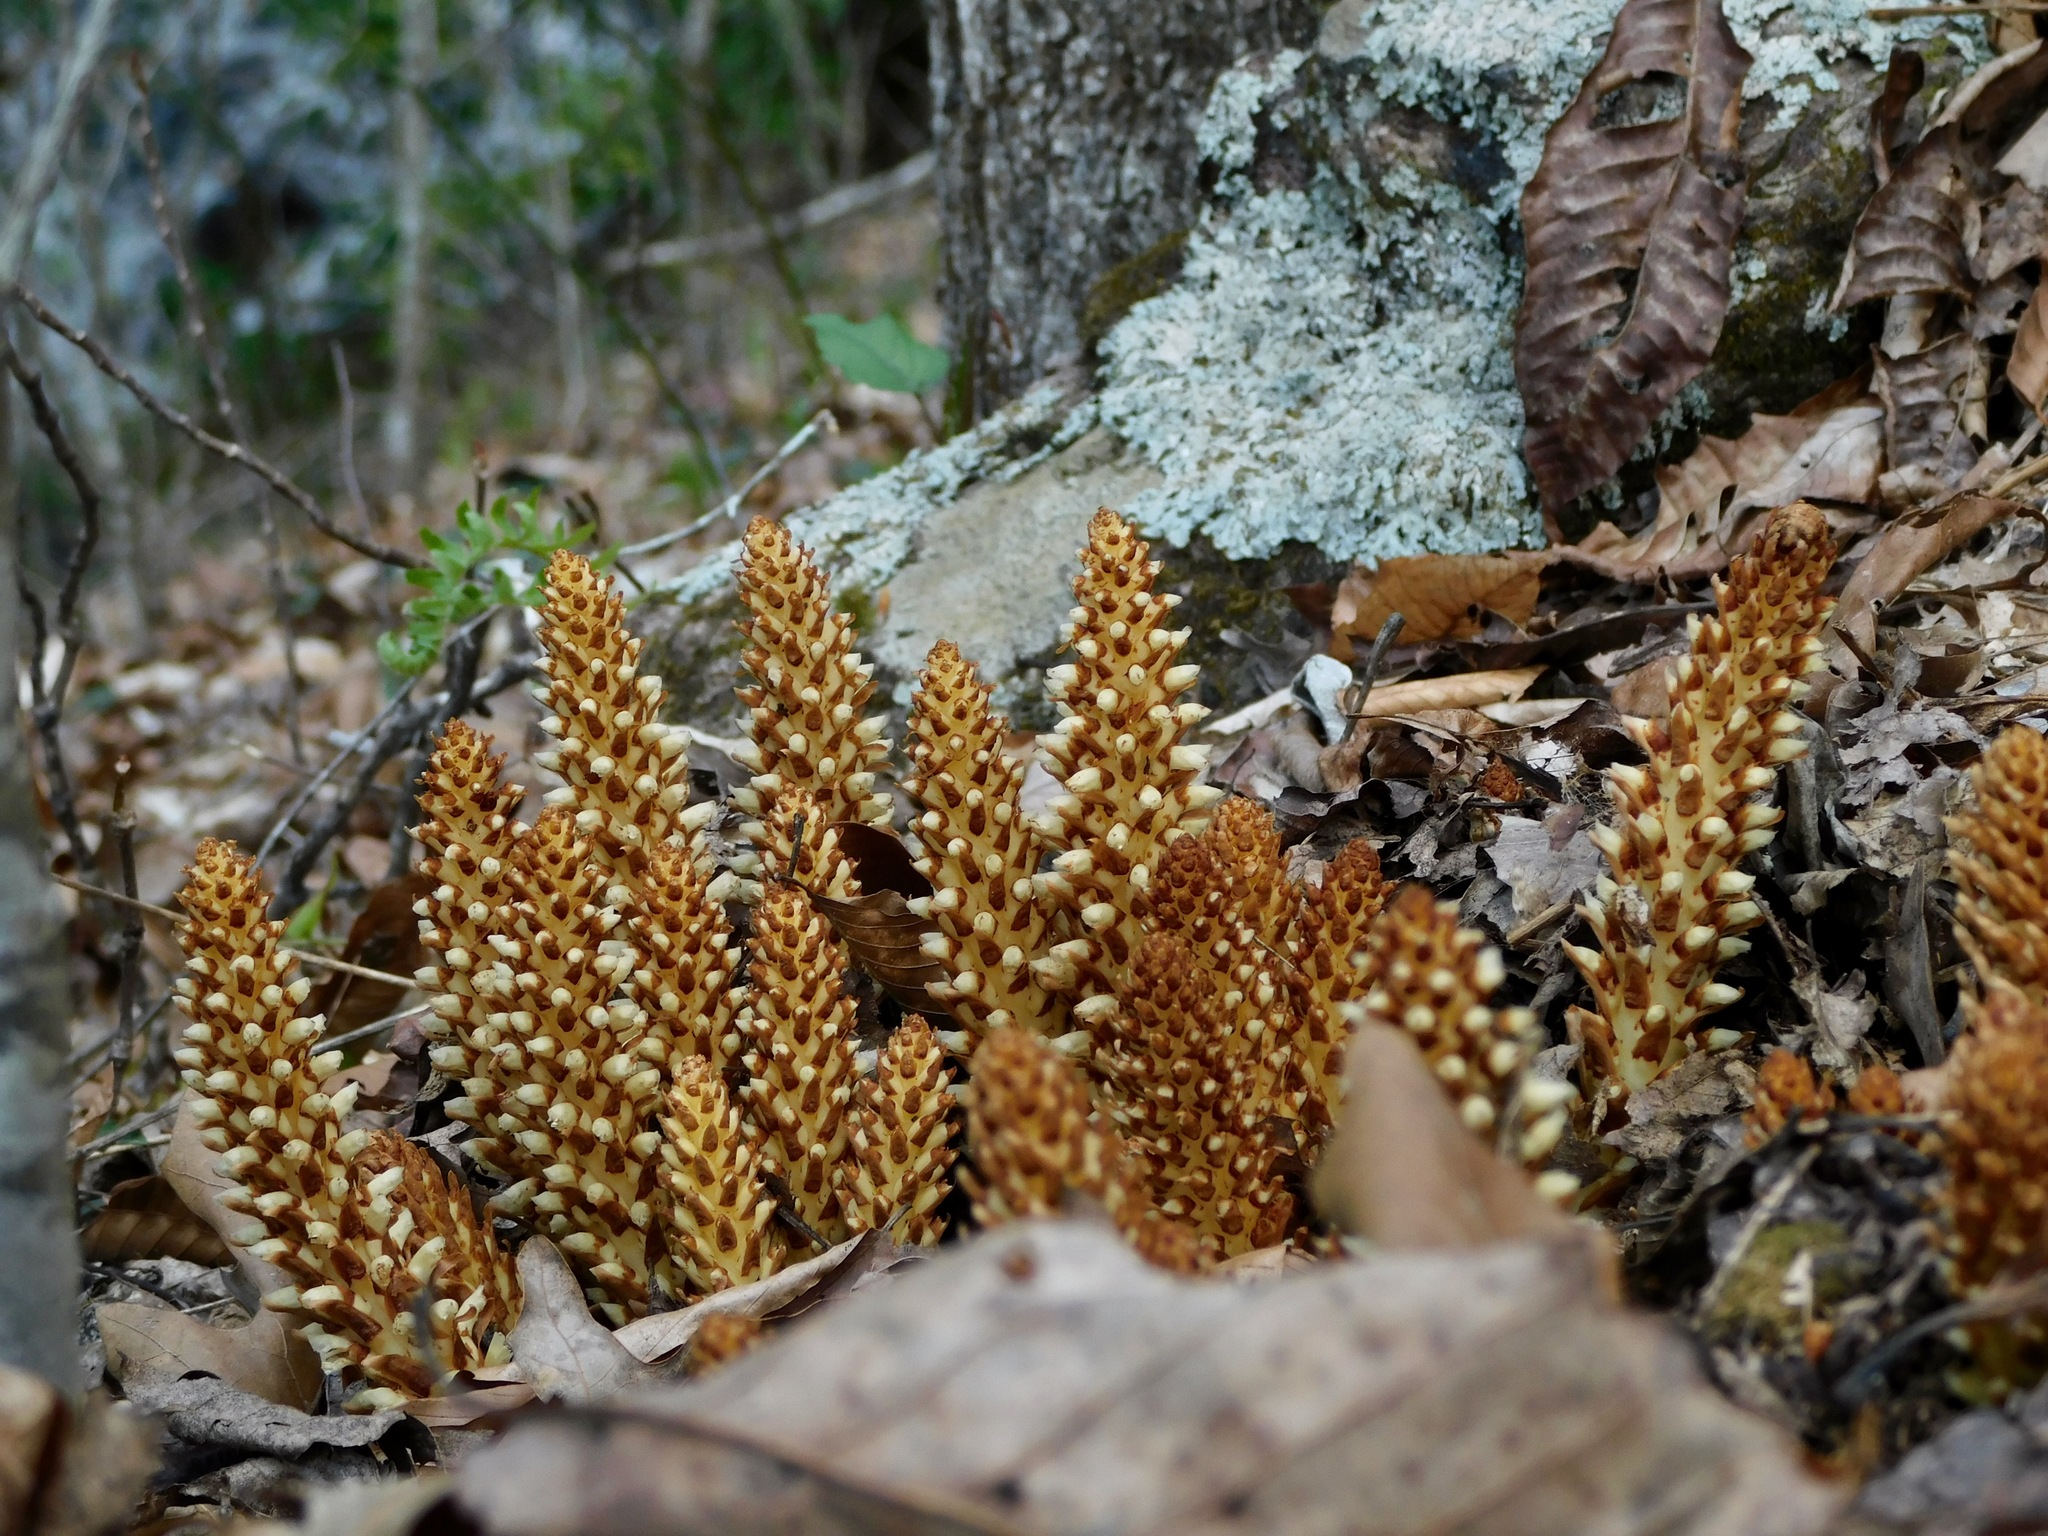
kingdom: Plantae
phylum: Tracheophyta
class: Magnoliopsida
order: Lamiales
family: Orobanchaceae
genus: Conopholis
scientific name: Conopholis americana
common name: American cancer-root
